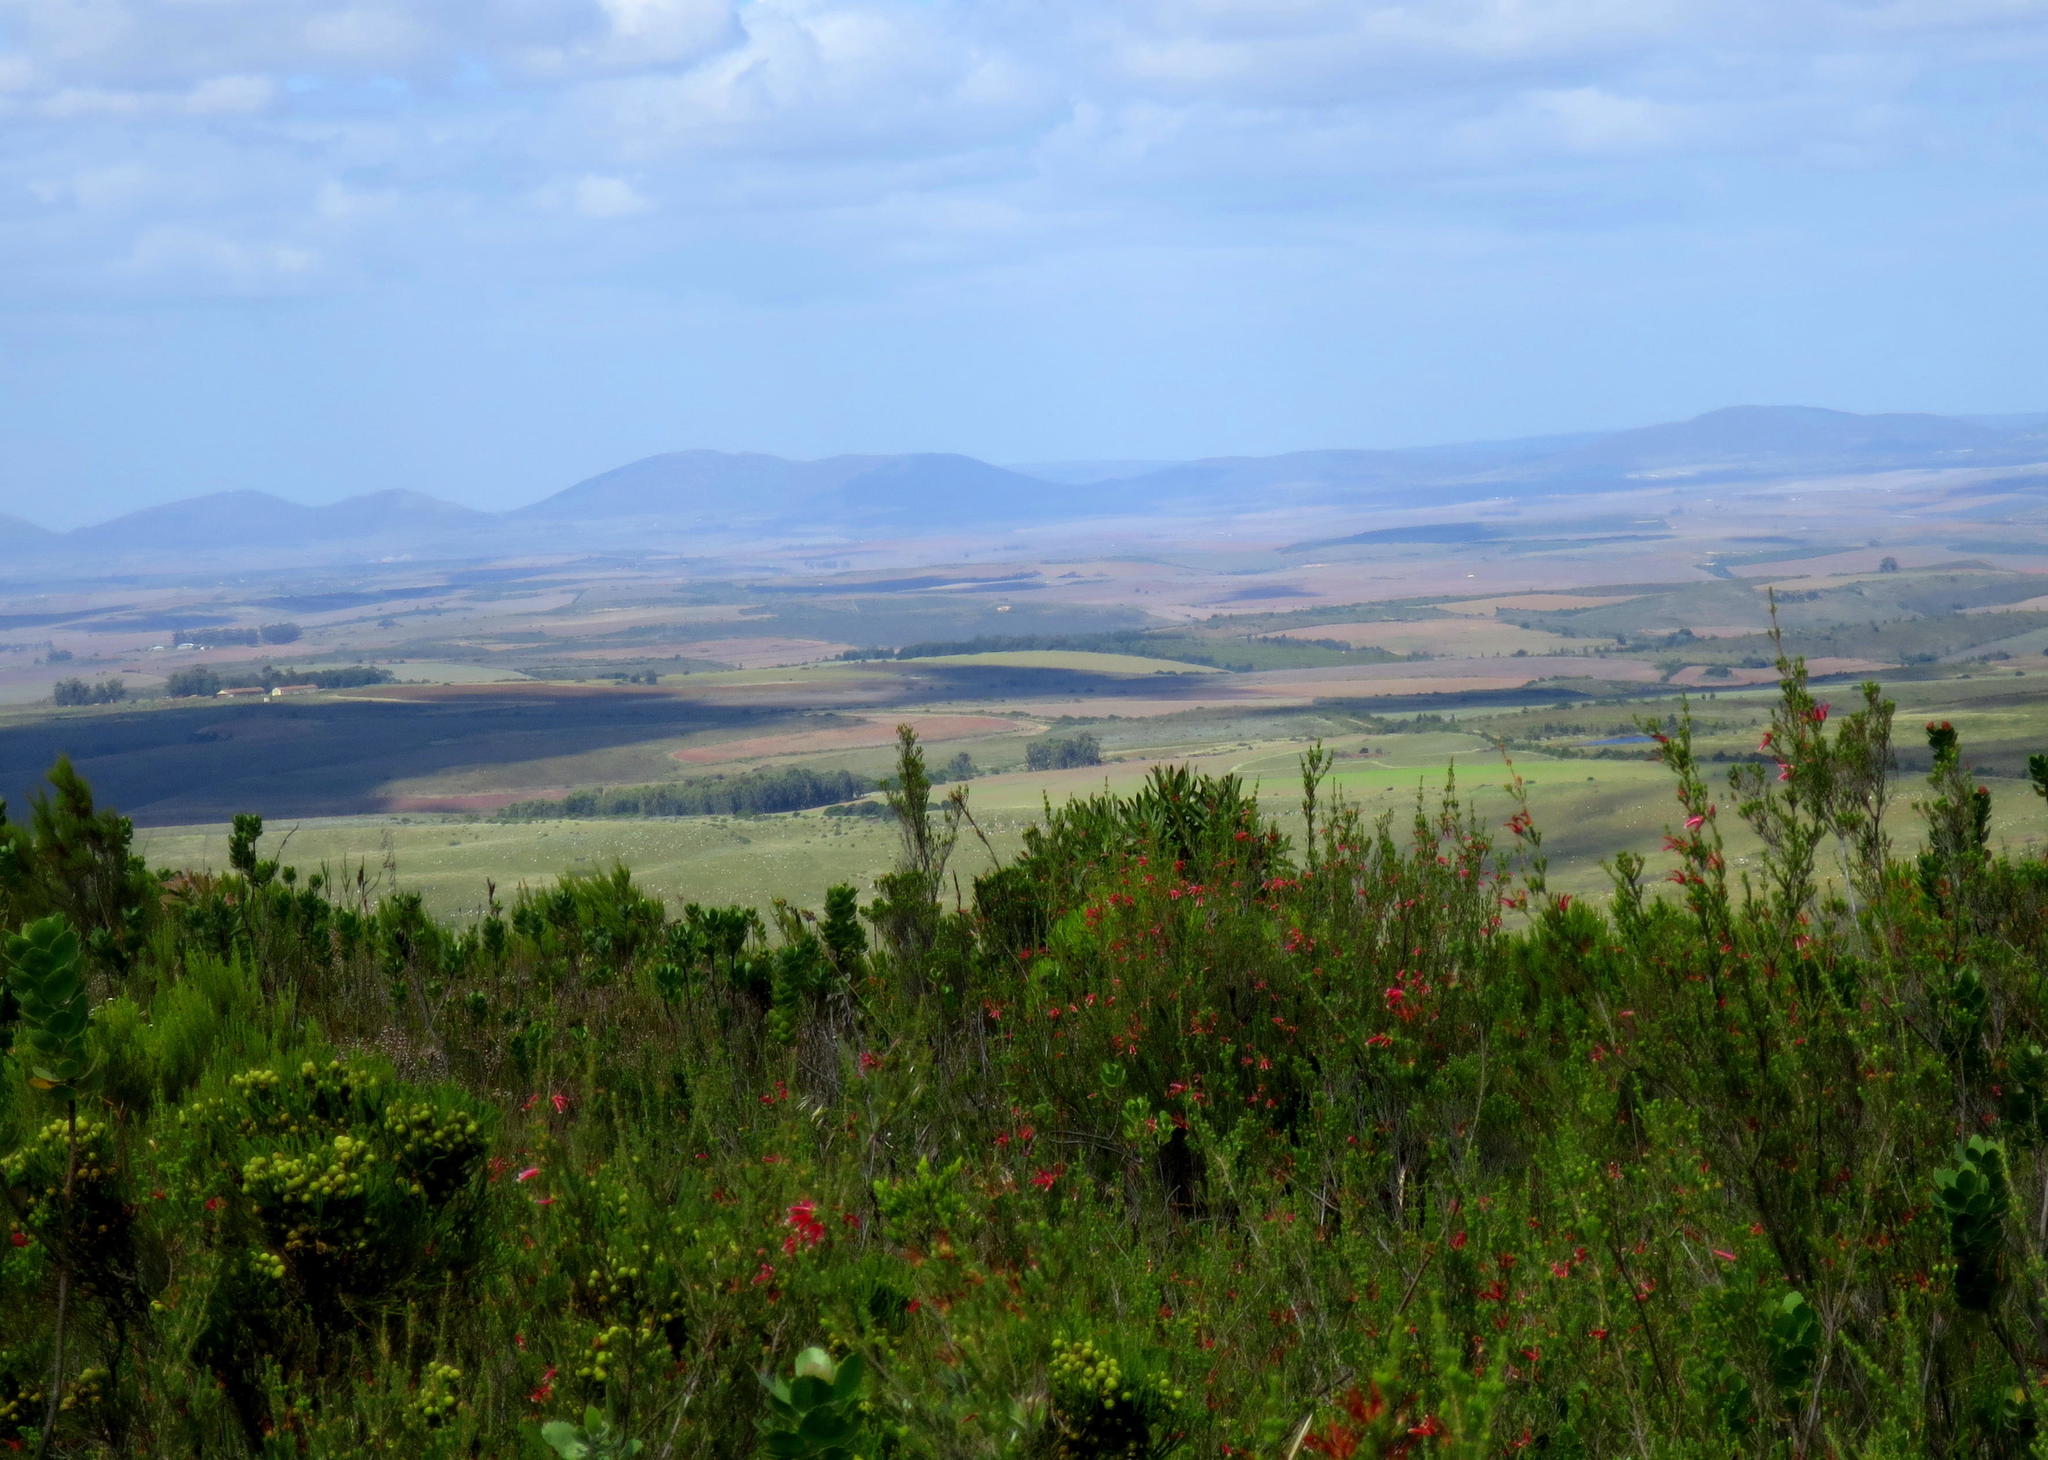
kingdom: Plantae
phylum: Tracheophyta
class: Magnoliopsida
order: Ericales
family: Ericaceae
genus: Erica
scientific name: Erica versicolor
